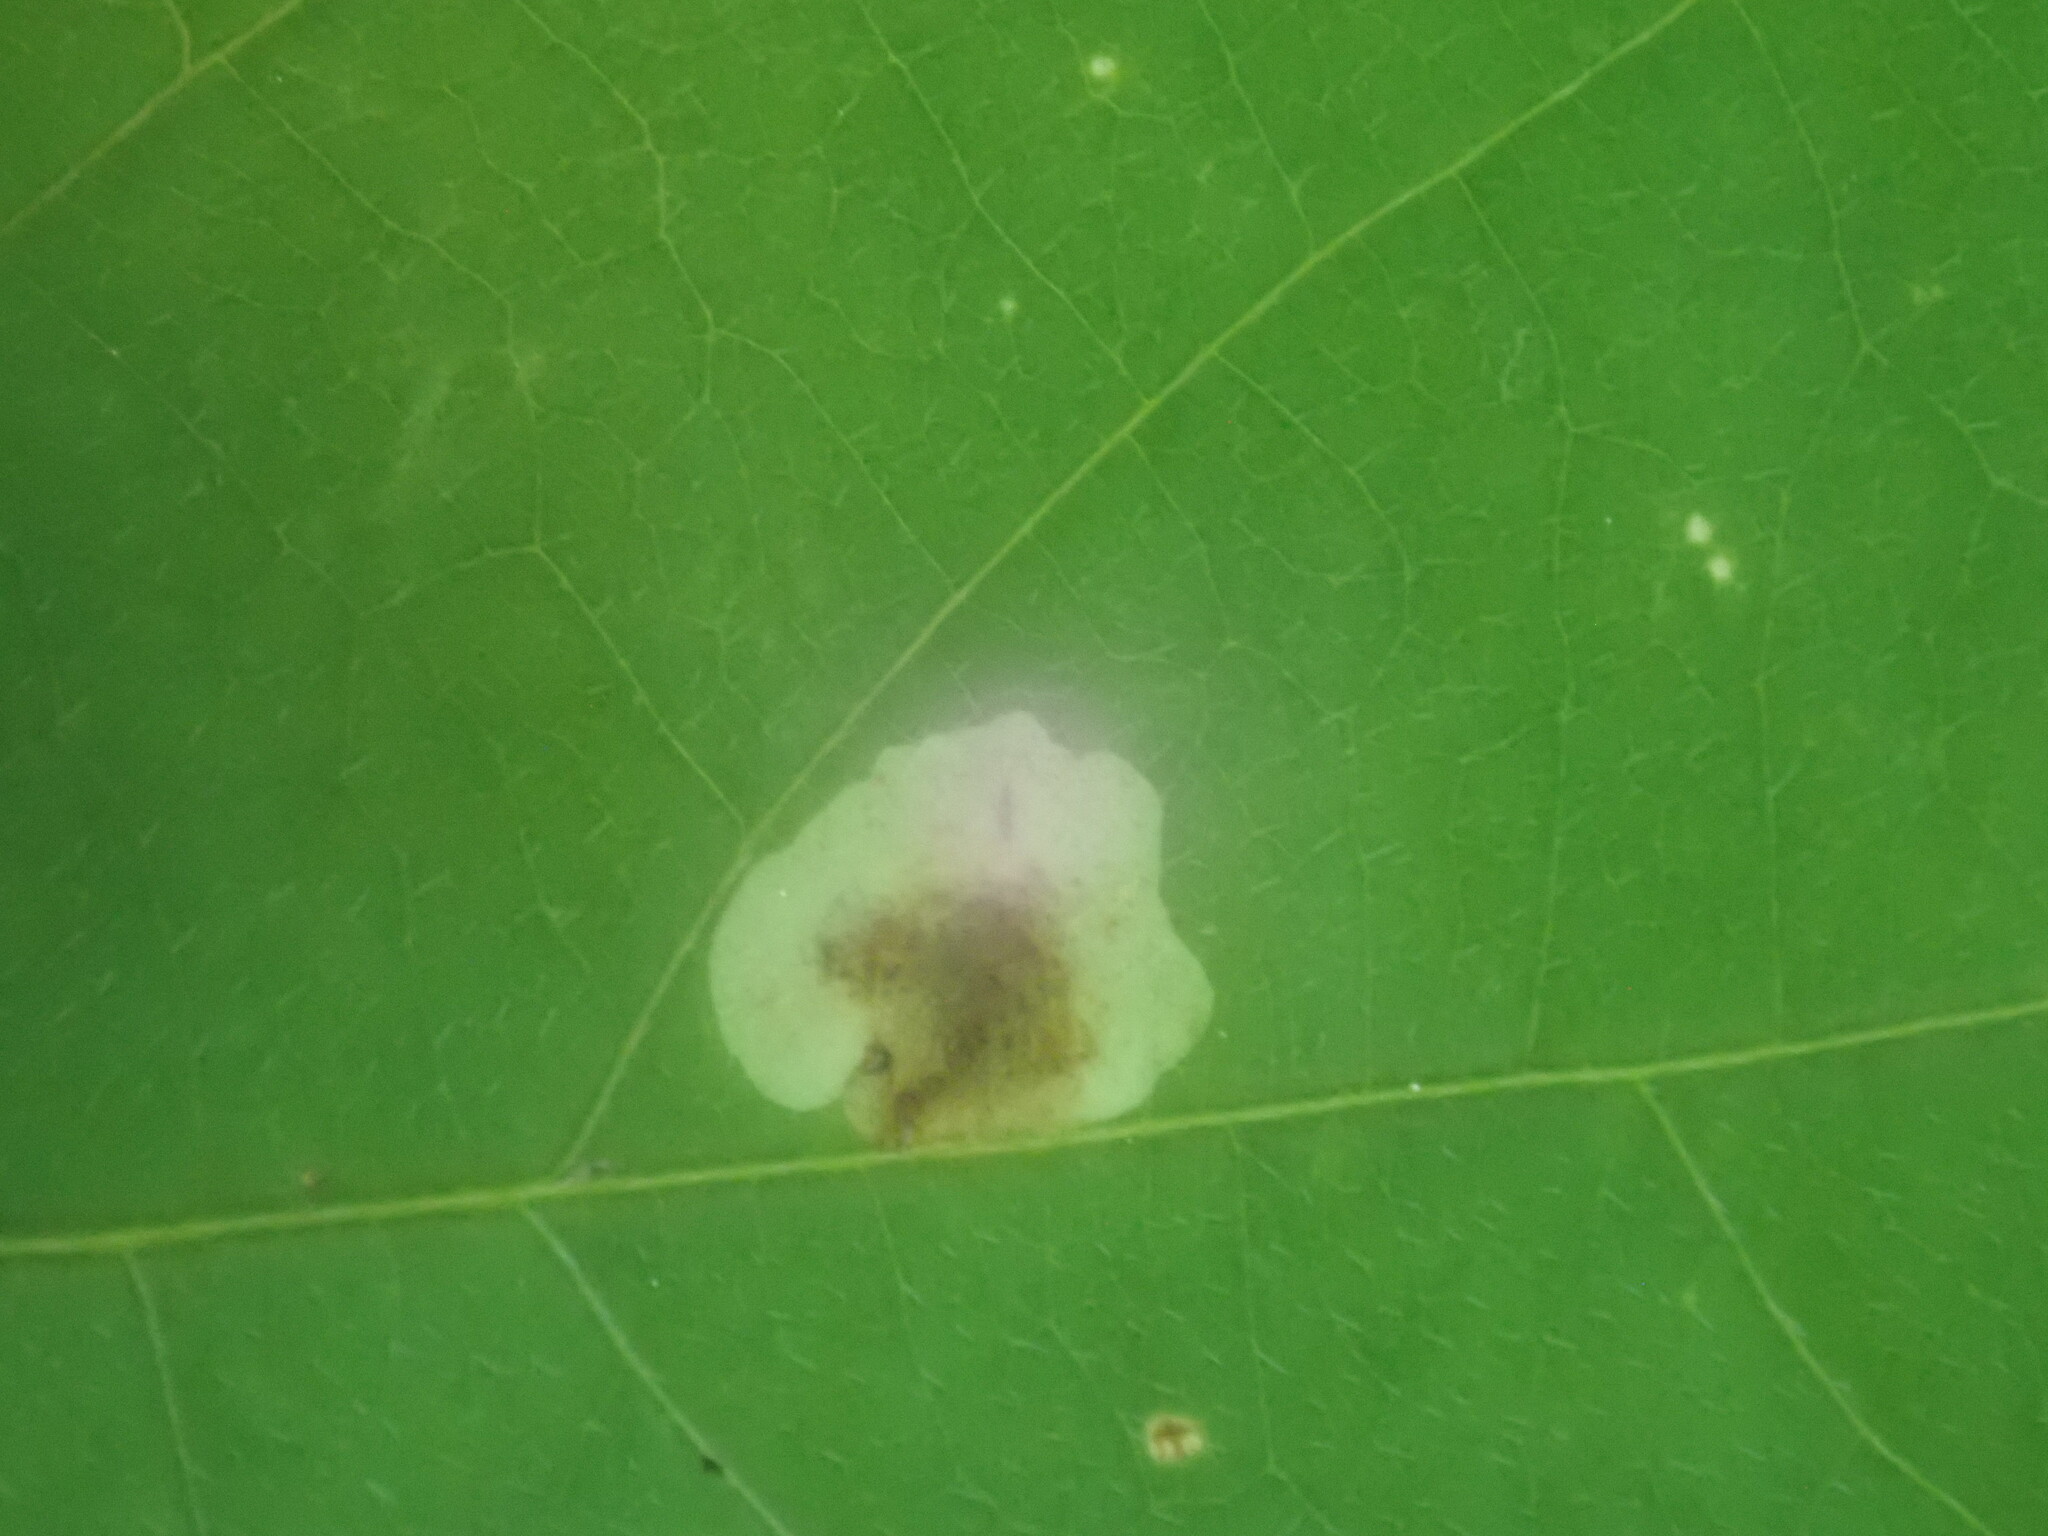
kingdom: Animalia
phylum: Arthropoda
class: Insecta
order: Lepidoptera
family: Gracillariidae
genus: Leucanthiza
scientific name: Leucanthiza amphicarpeaefoliella
